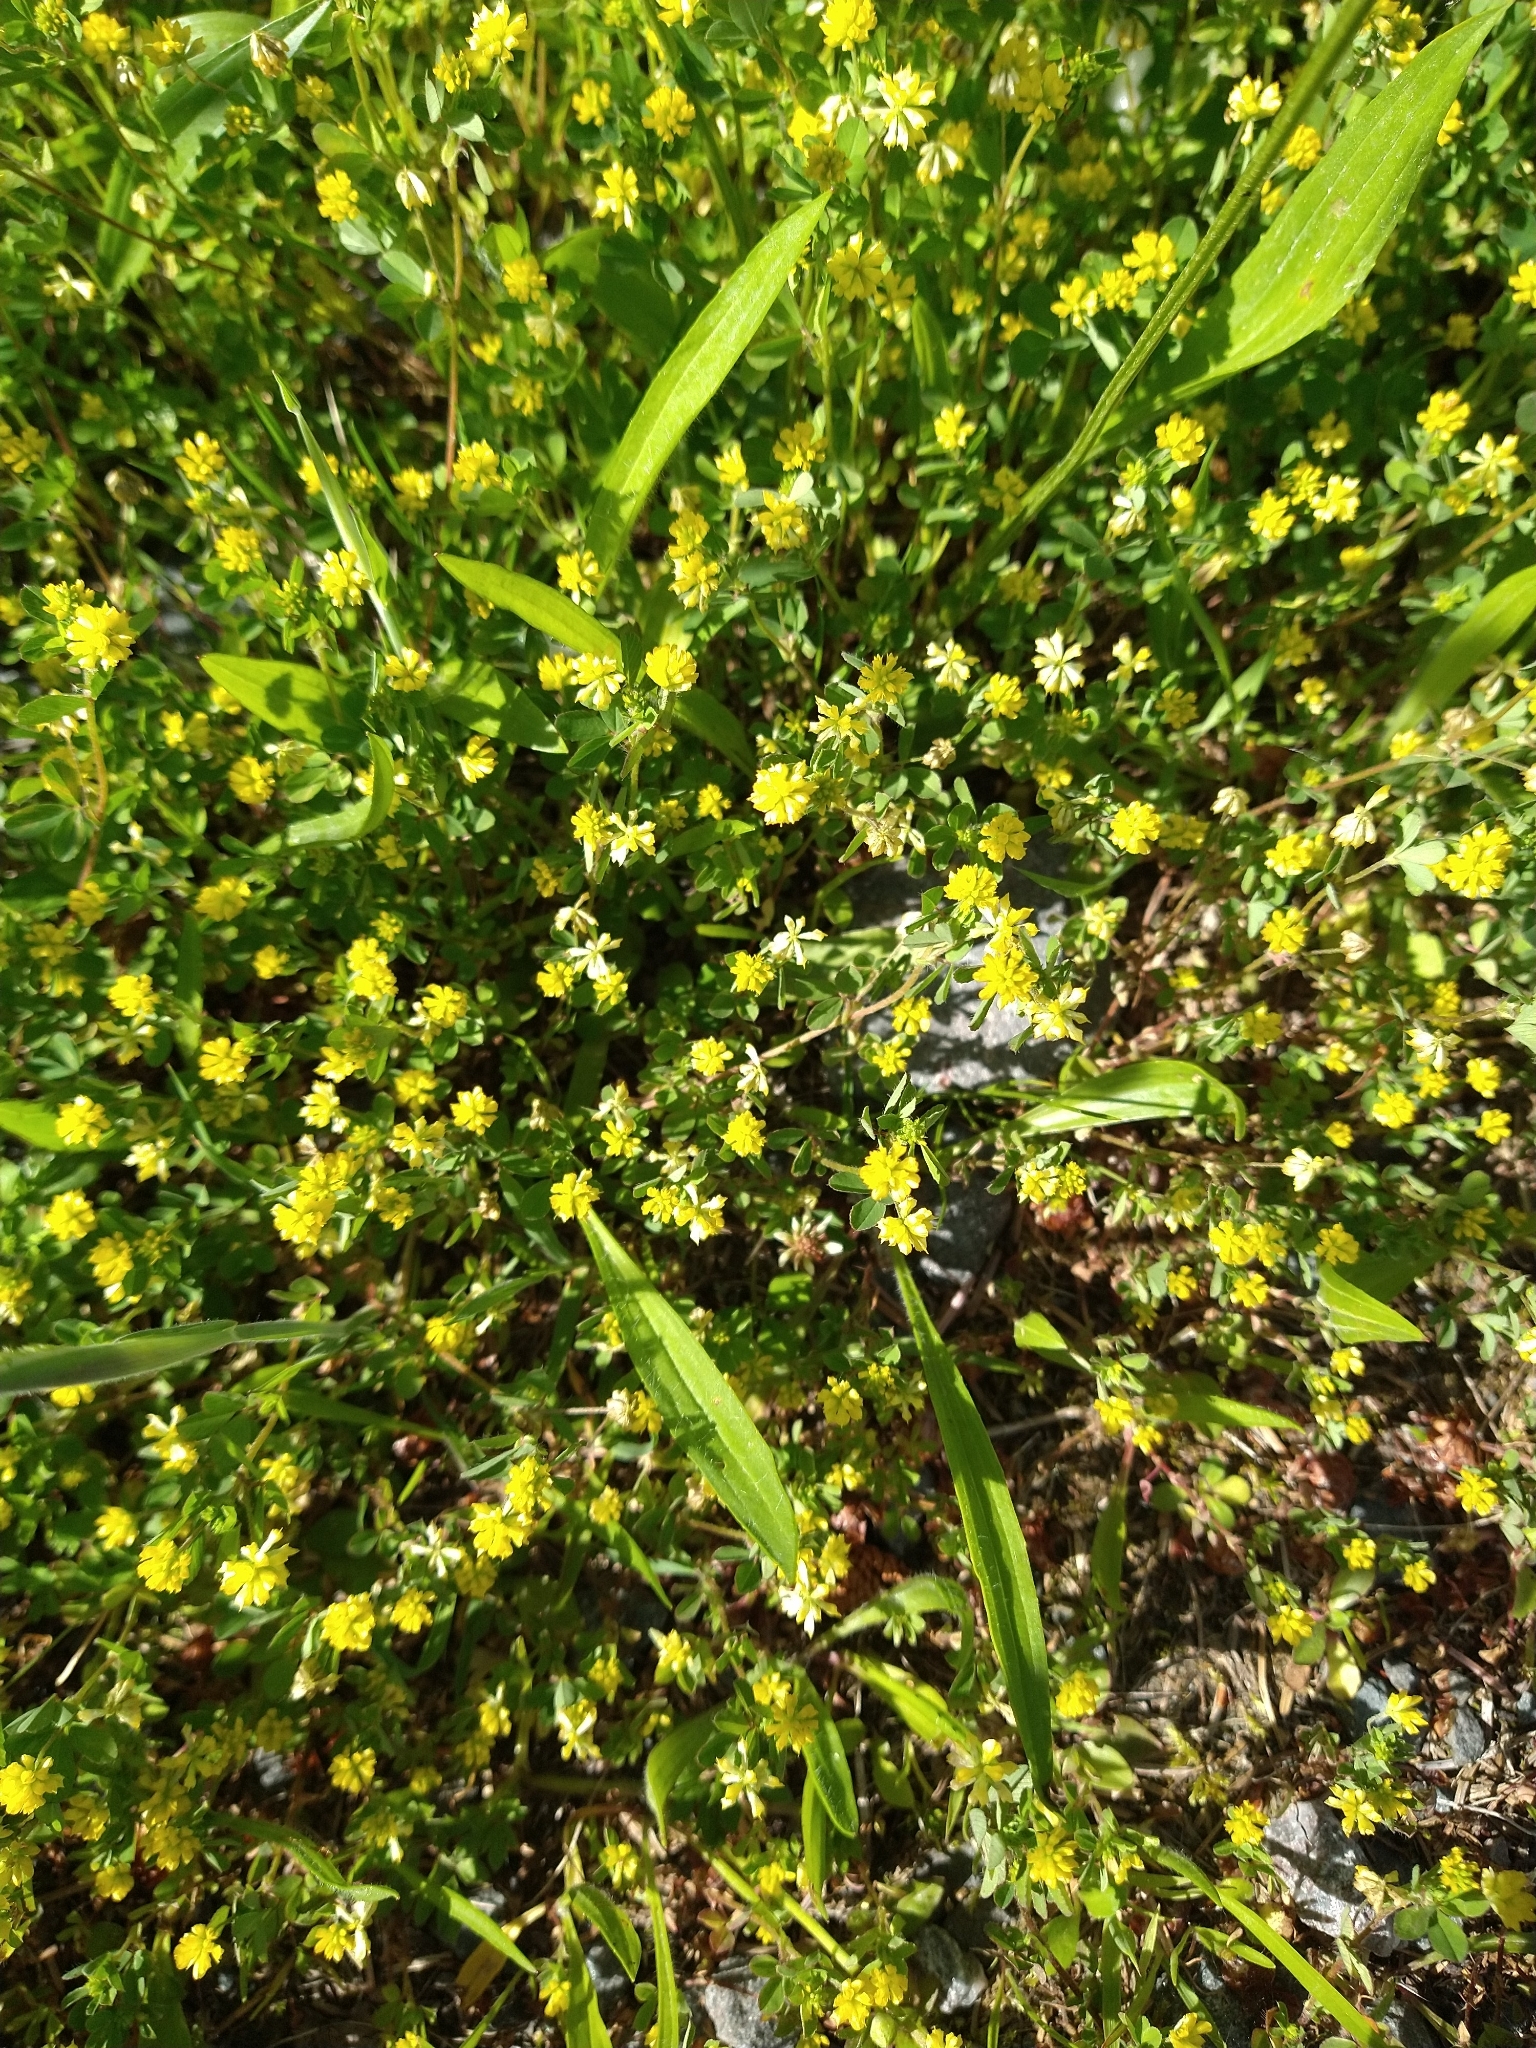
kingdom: Plantae
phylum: Tracheophyta
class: Magnoliopsida
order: Fabales
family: Fabaceae
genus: Trifolium
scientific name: Trifolium dubium
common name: Suckling clover
